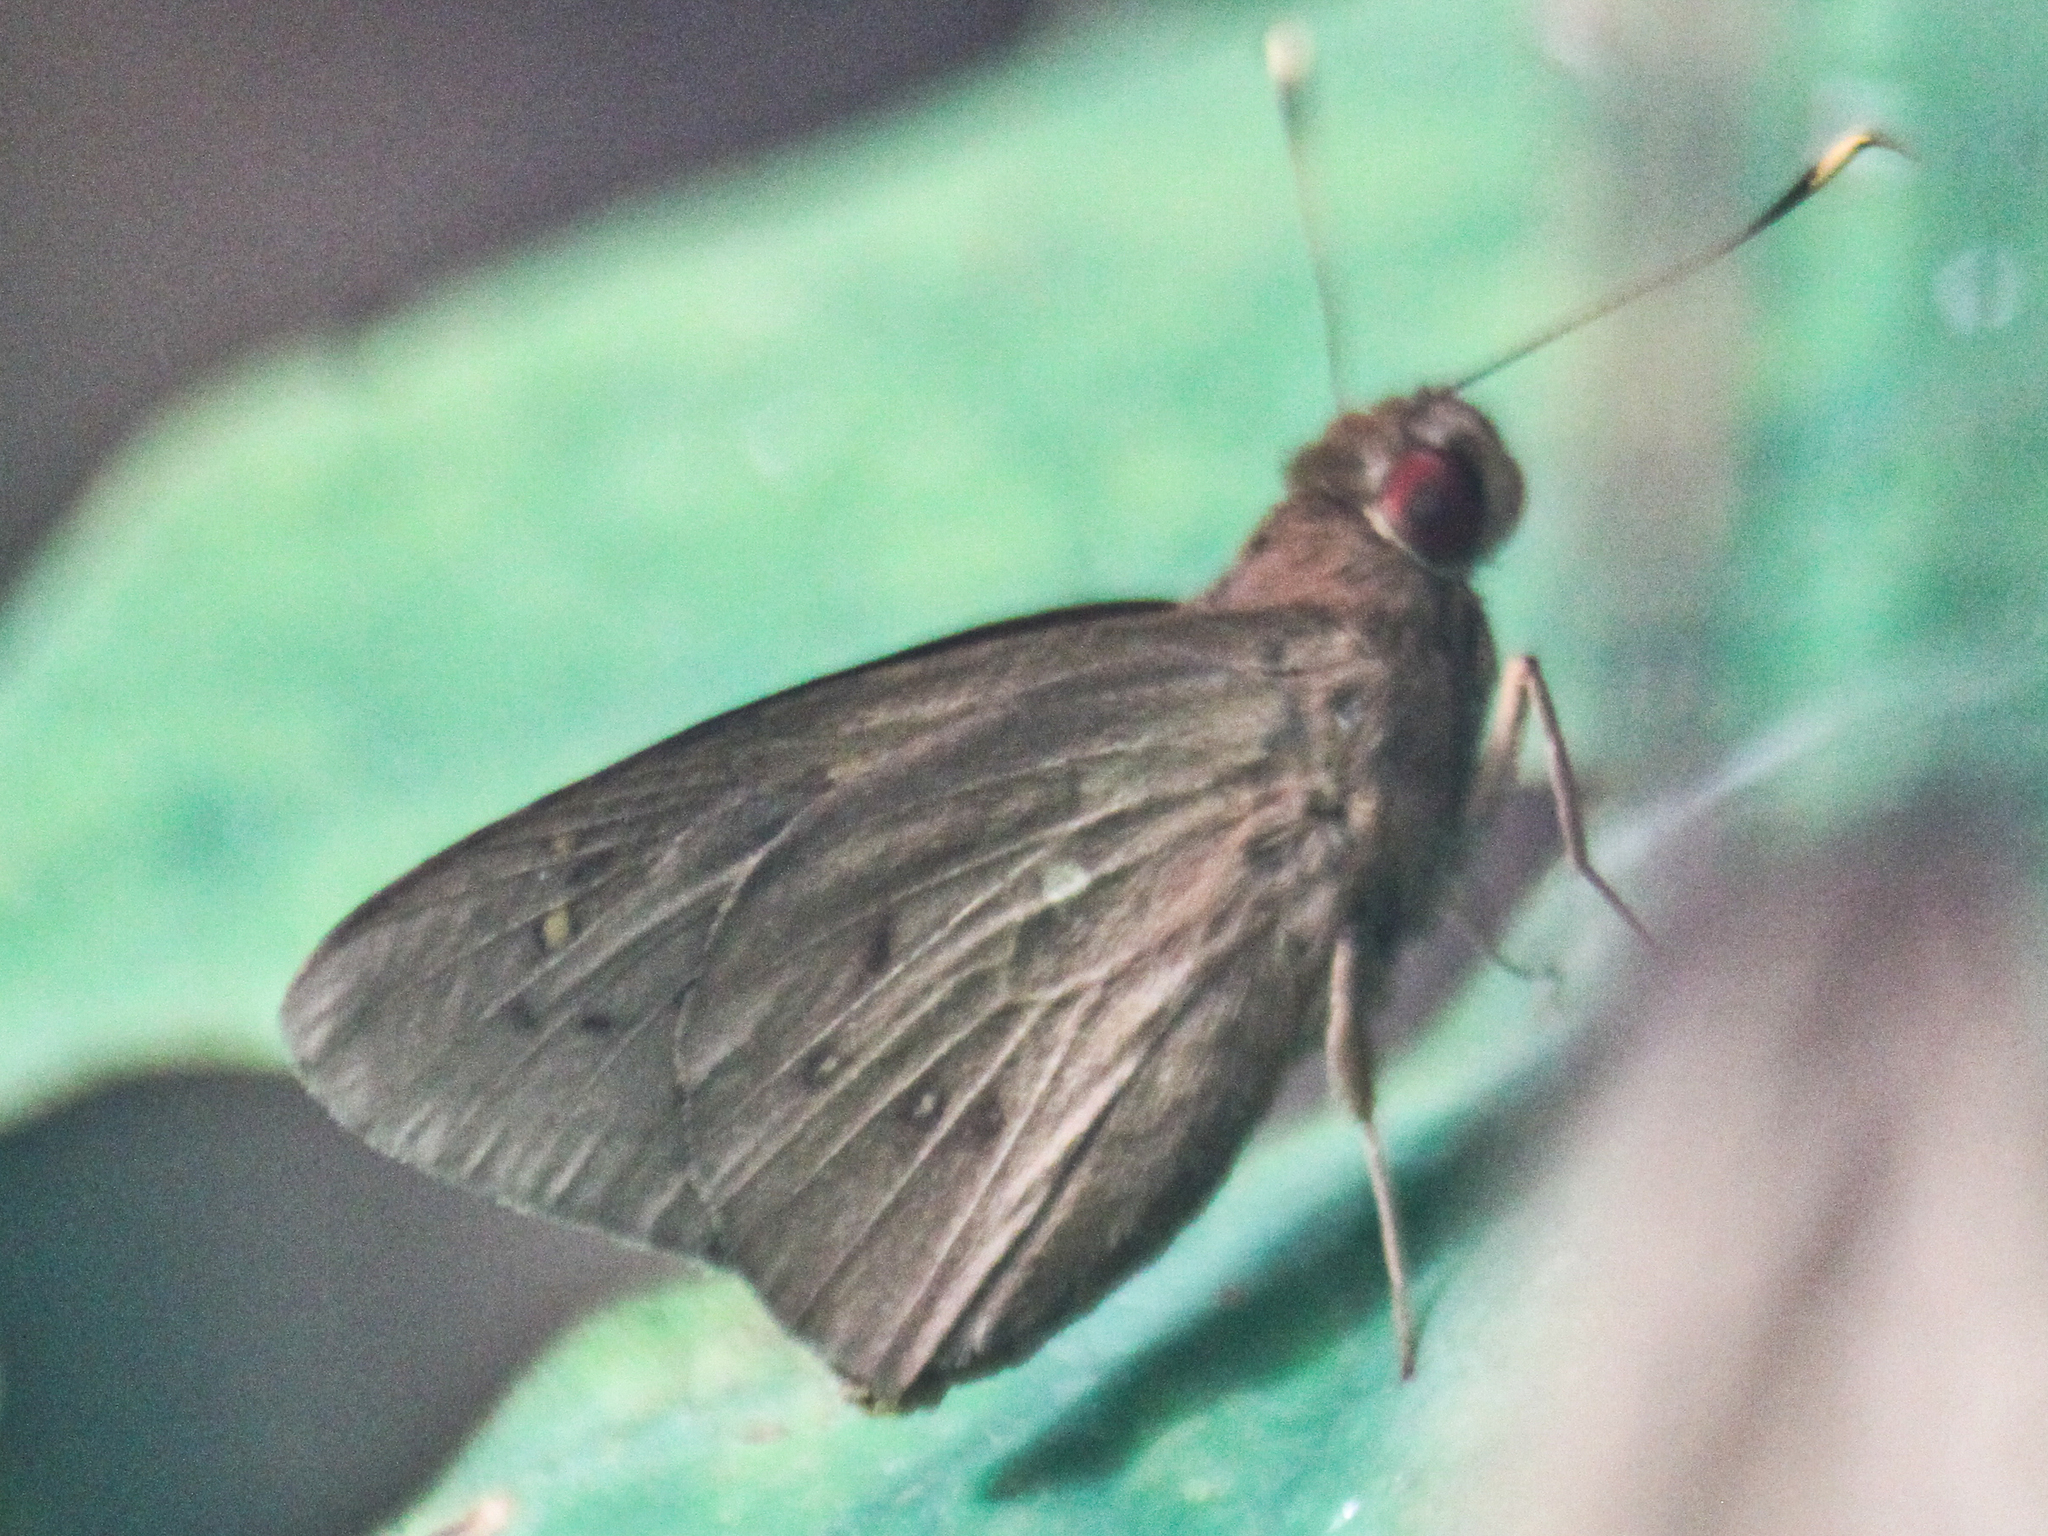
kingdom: Animalia
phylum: Arthropoda
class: Insecta
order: Lepidoptera
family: Hesperiidae
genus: Hidari
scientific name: Hidari irava
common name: Coconut skipper
